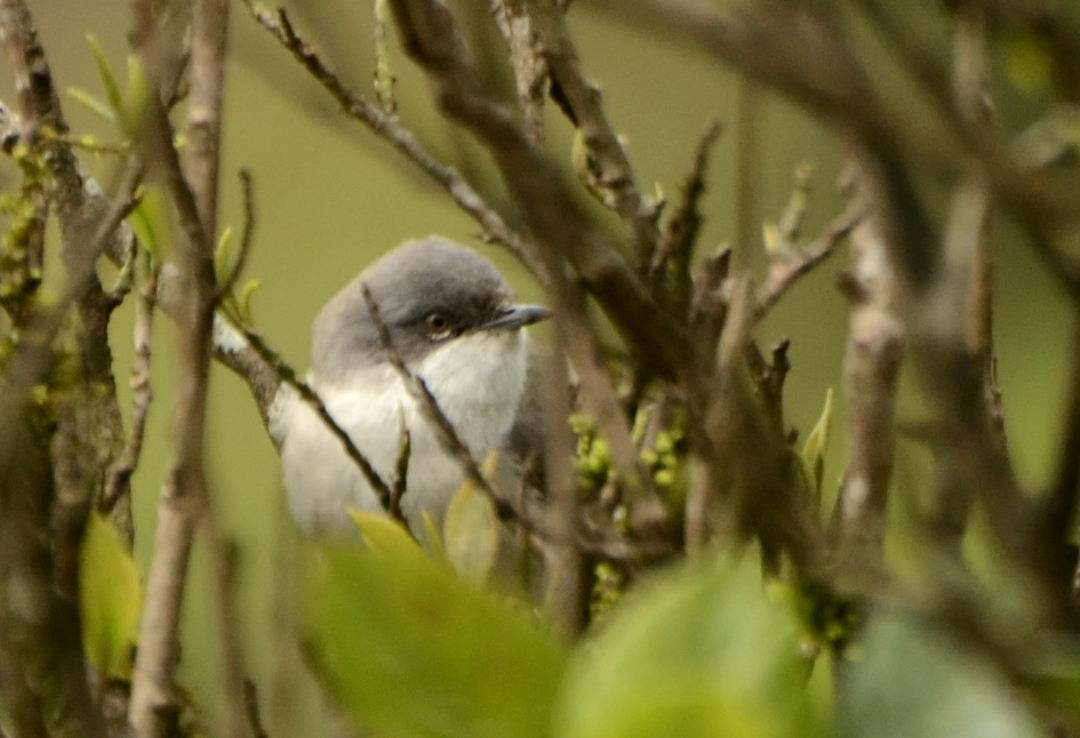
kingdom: Animalia
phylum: Chordata
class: Aves
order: Passeriformes
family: Sylviidae
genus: Sylvia
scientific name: Sylvia curruca
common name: Lesser whitethroat
